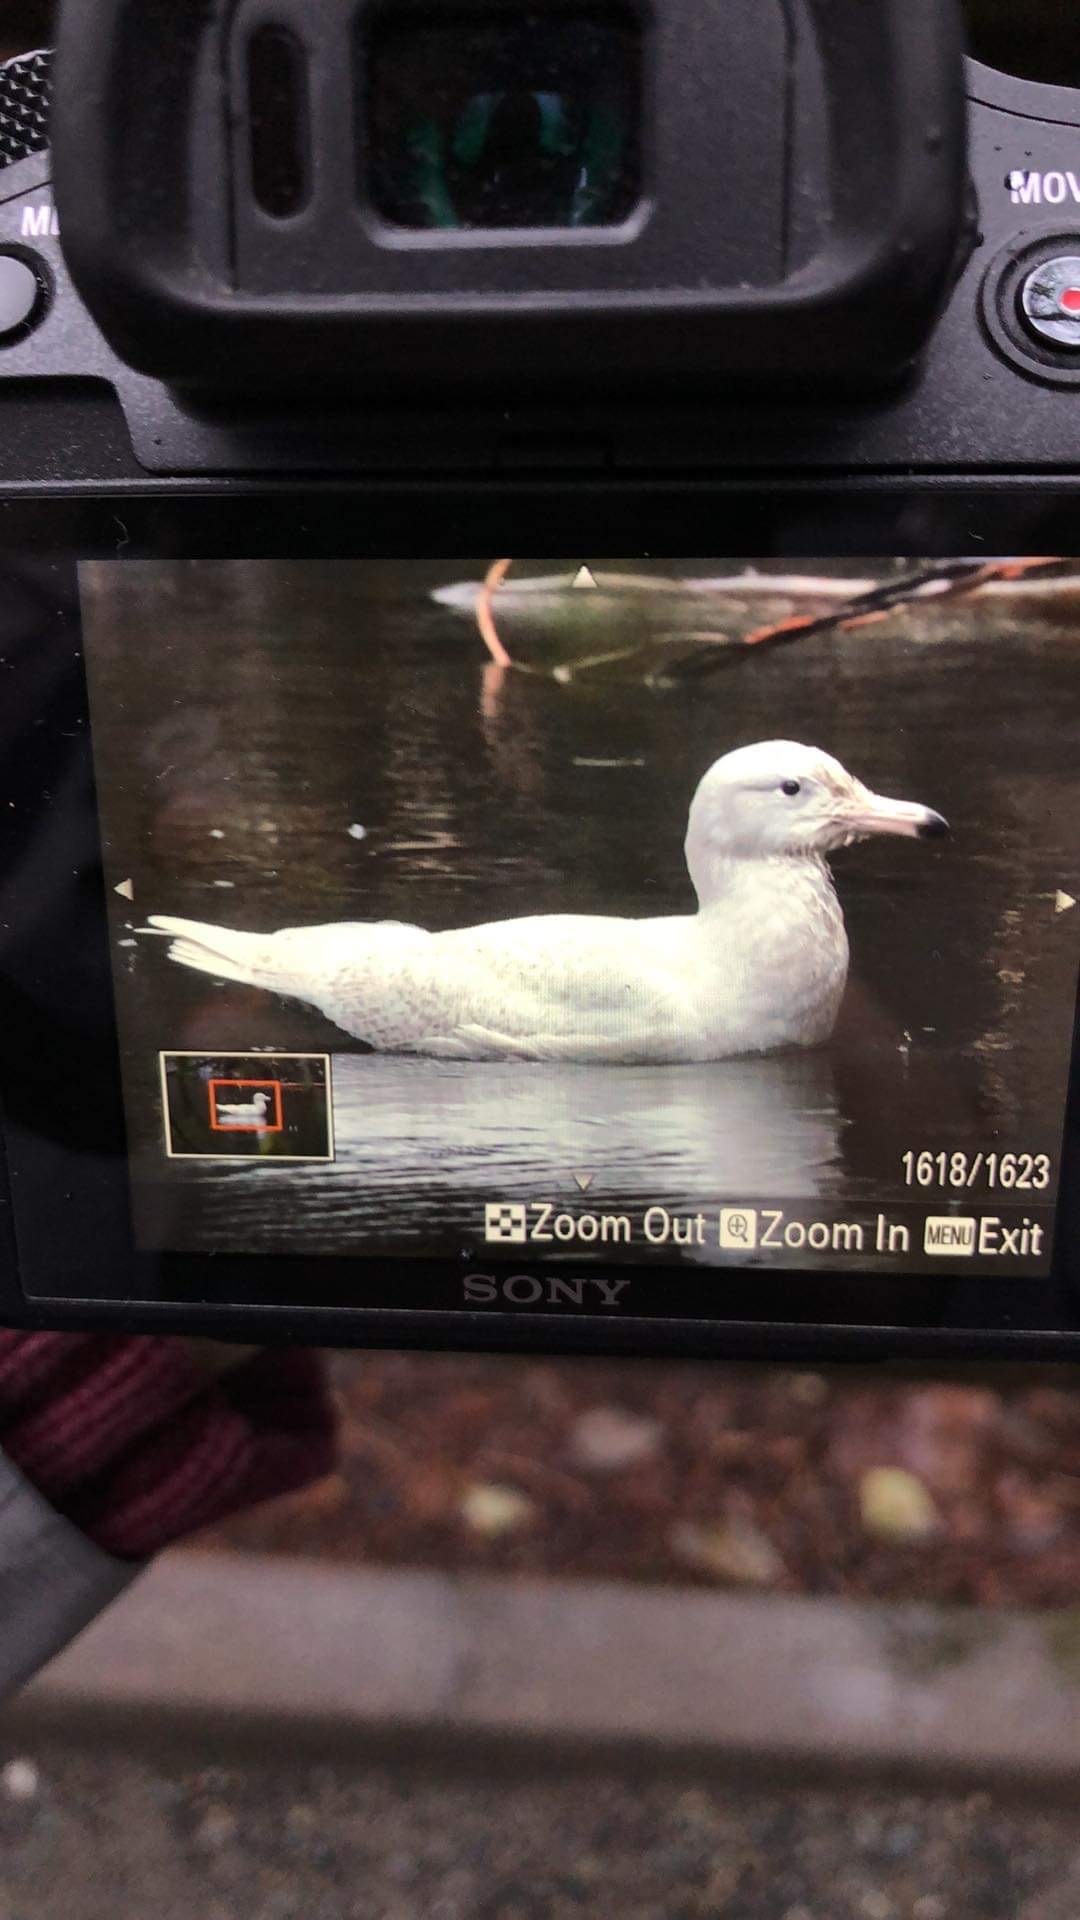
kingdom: Animalia
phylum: Chordata
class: Aves
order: Charadriiformes
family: Laridae
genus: Larus
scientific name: Larus hyperboreus
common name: Glaucous gull
